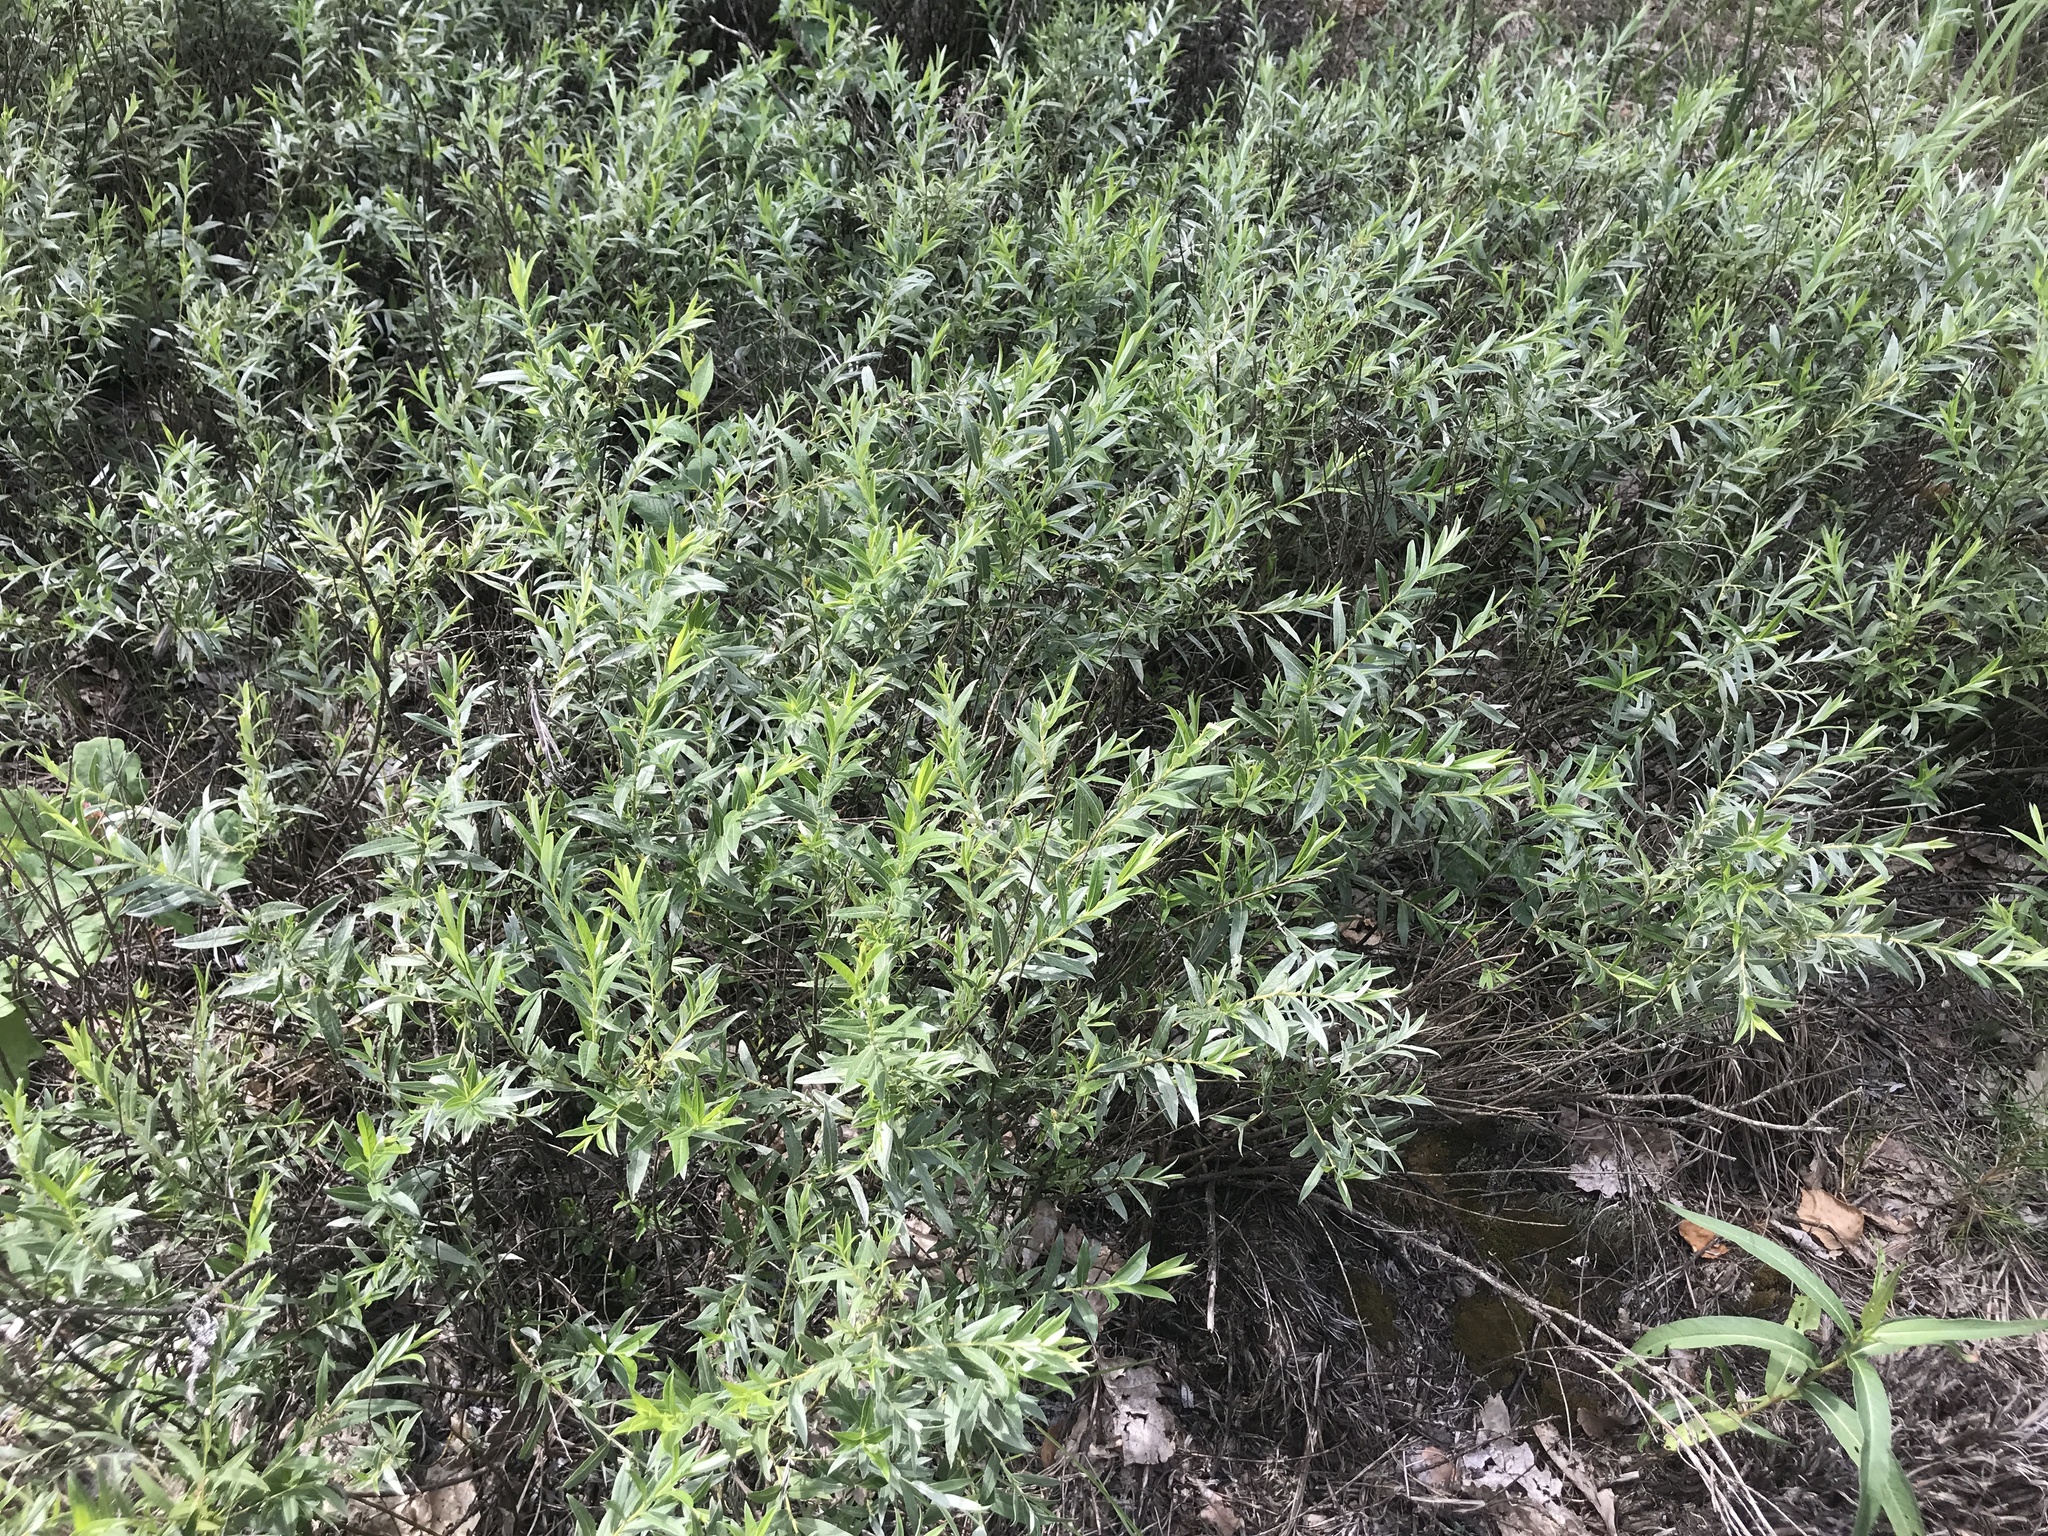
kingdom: Plantae
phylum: Tracheophyta
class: Magnoliopsida
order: Malpighiales
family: Salicaceae
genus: Salix
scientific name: Salix rosmarinifolia
